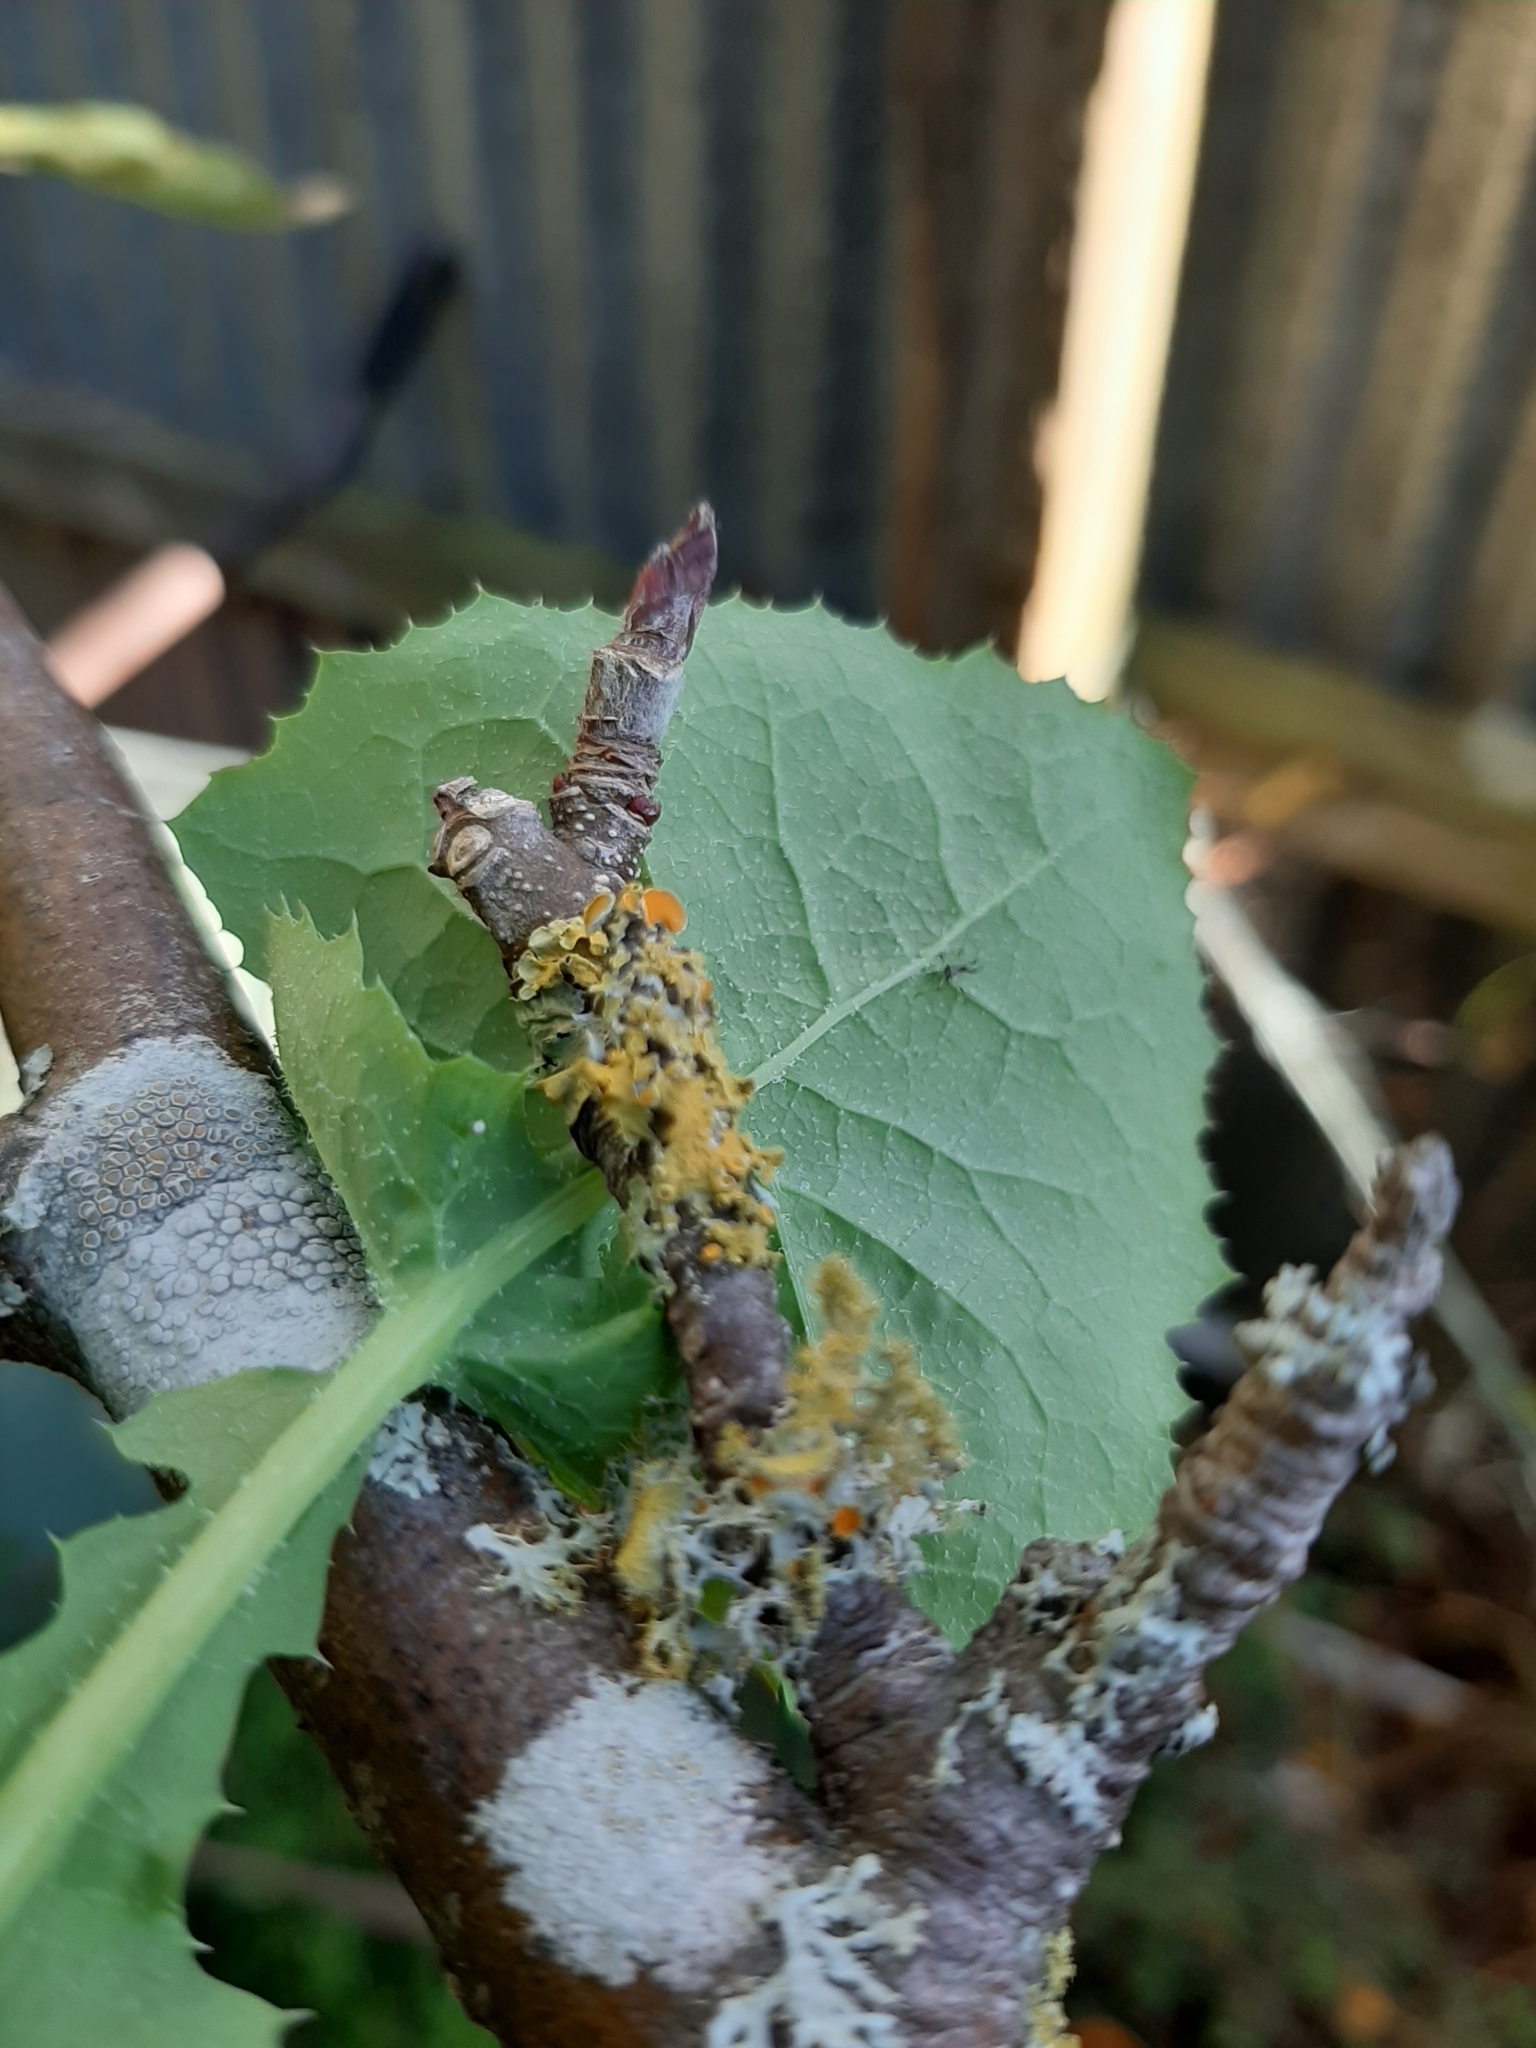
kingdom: Fungi
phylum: Ascomycota
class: Lecanoromycetes
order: Teloschistales
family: Teloschistaceae
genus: Niorma
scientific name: Niorma chrysophthalma
